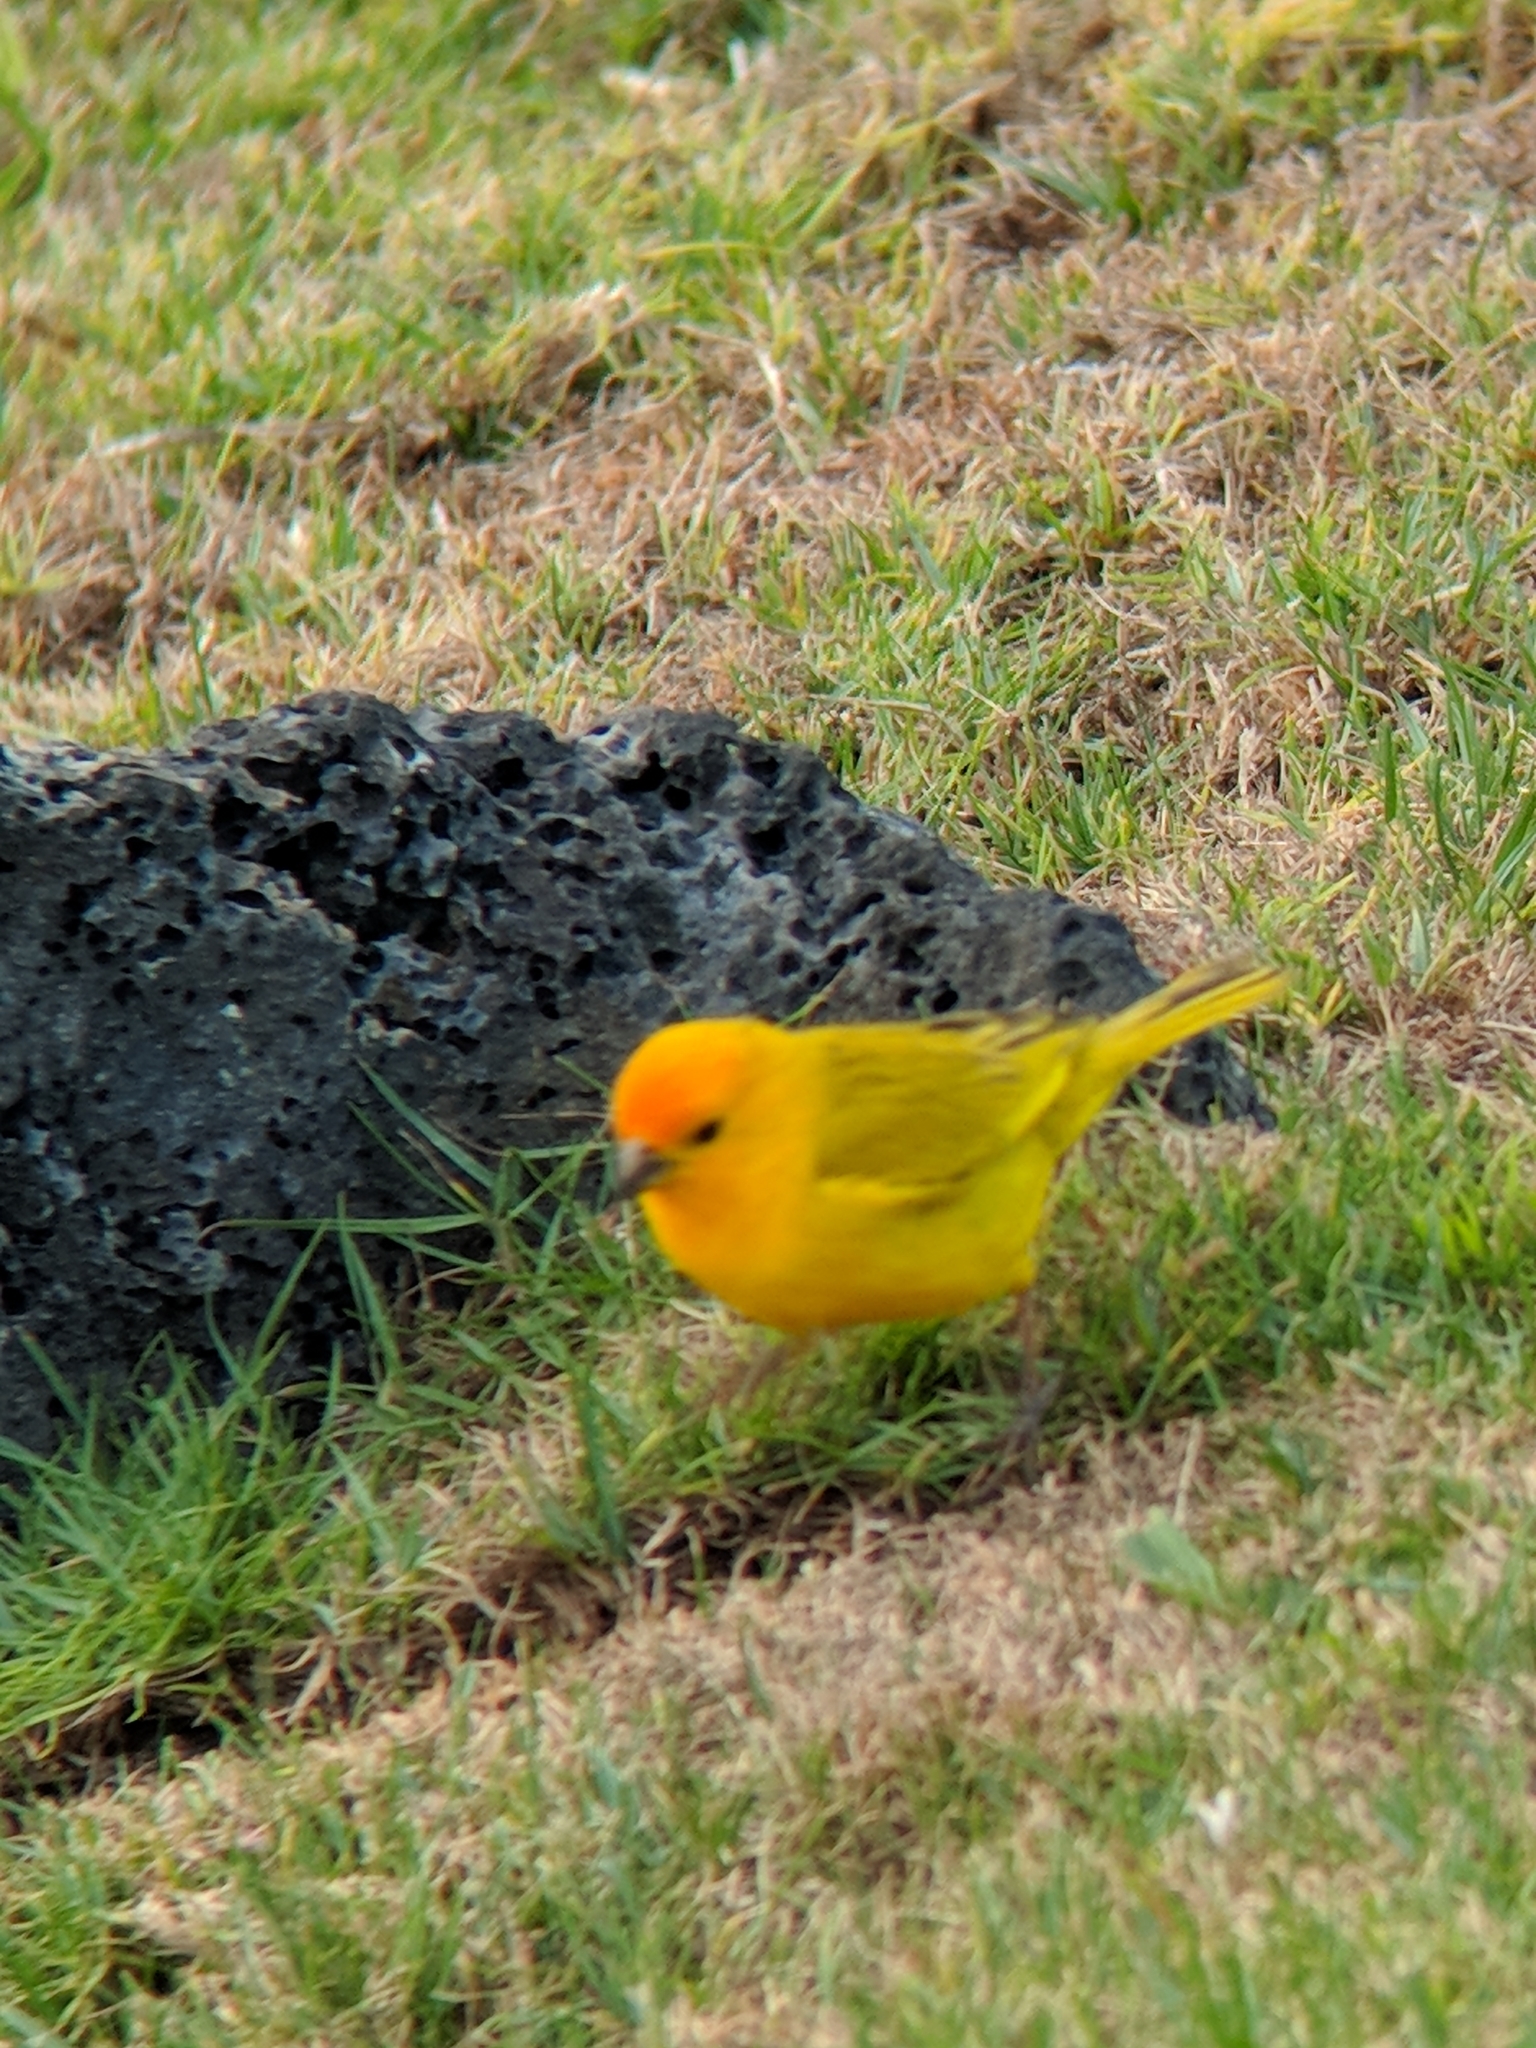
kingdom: Animalia
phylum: Chordata
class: Aves
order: Passeriformes
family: Thraupidae
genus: Sicalis
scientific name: Sicalis flaveola
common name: Saffron finch
